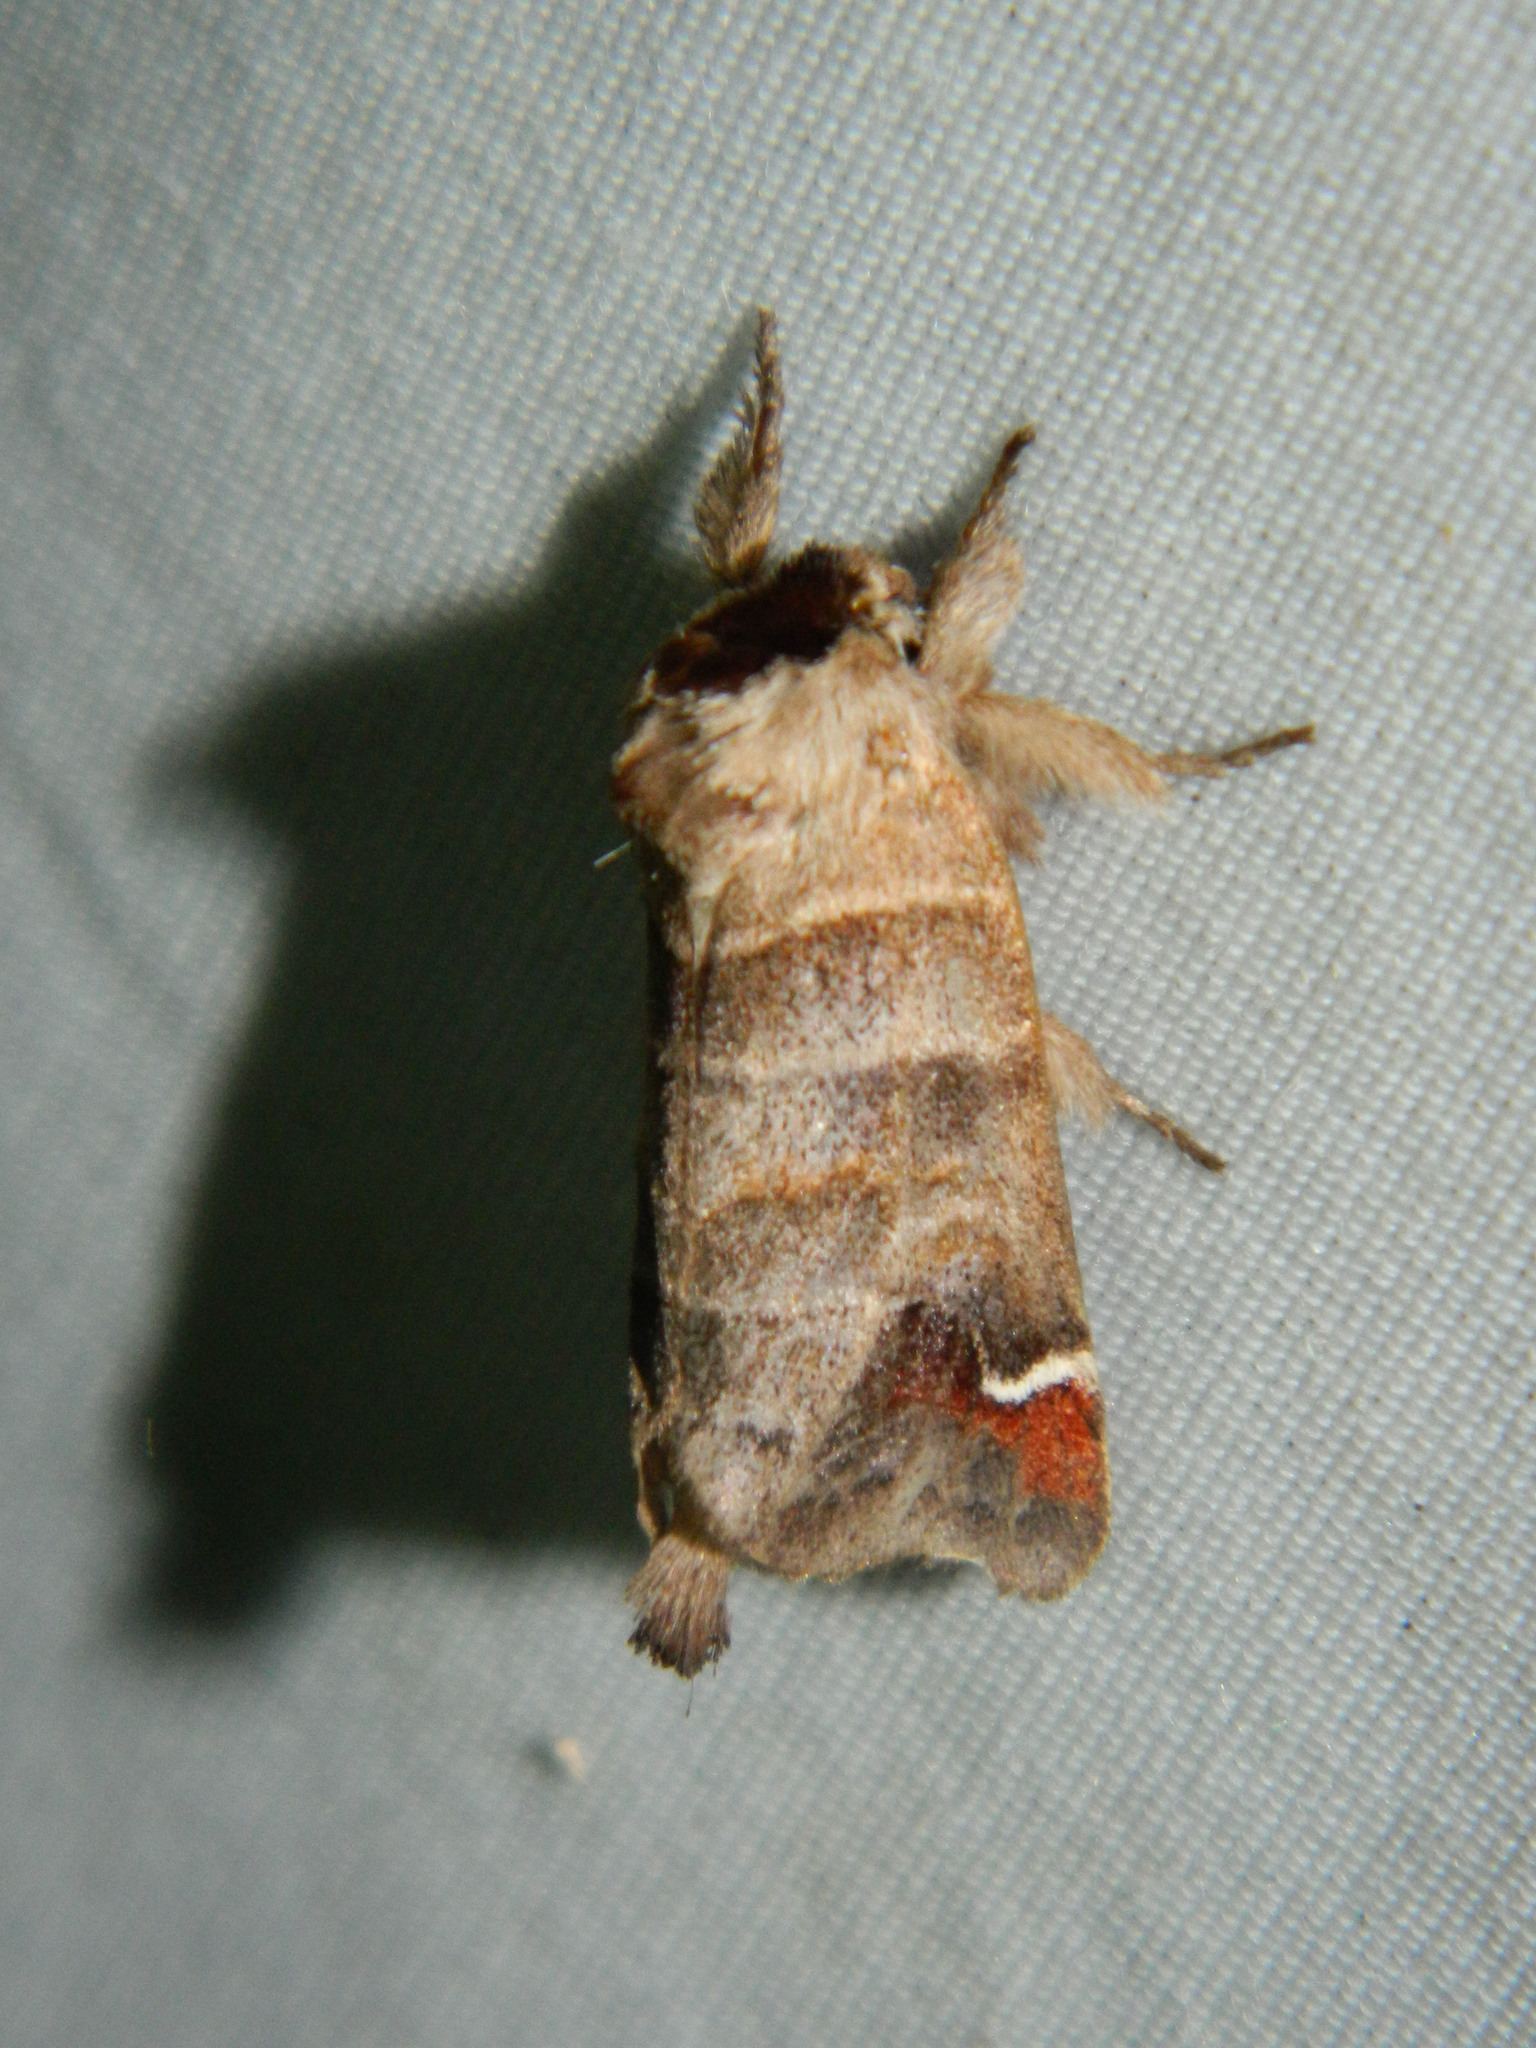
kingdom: Animalia
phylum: Arthropoda
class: Insecta
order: Lepidoptera
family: Notodontidae
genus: Clostera
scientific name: Clostera albosigma
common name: Sigmoid prominent
